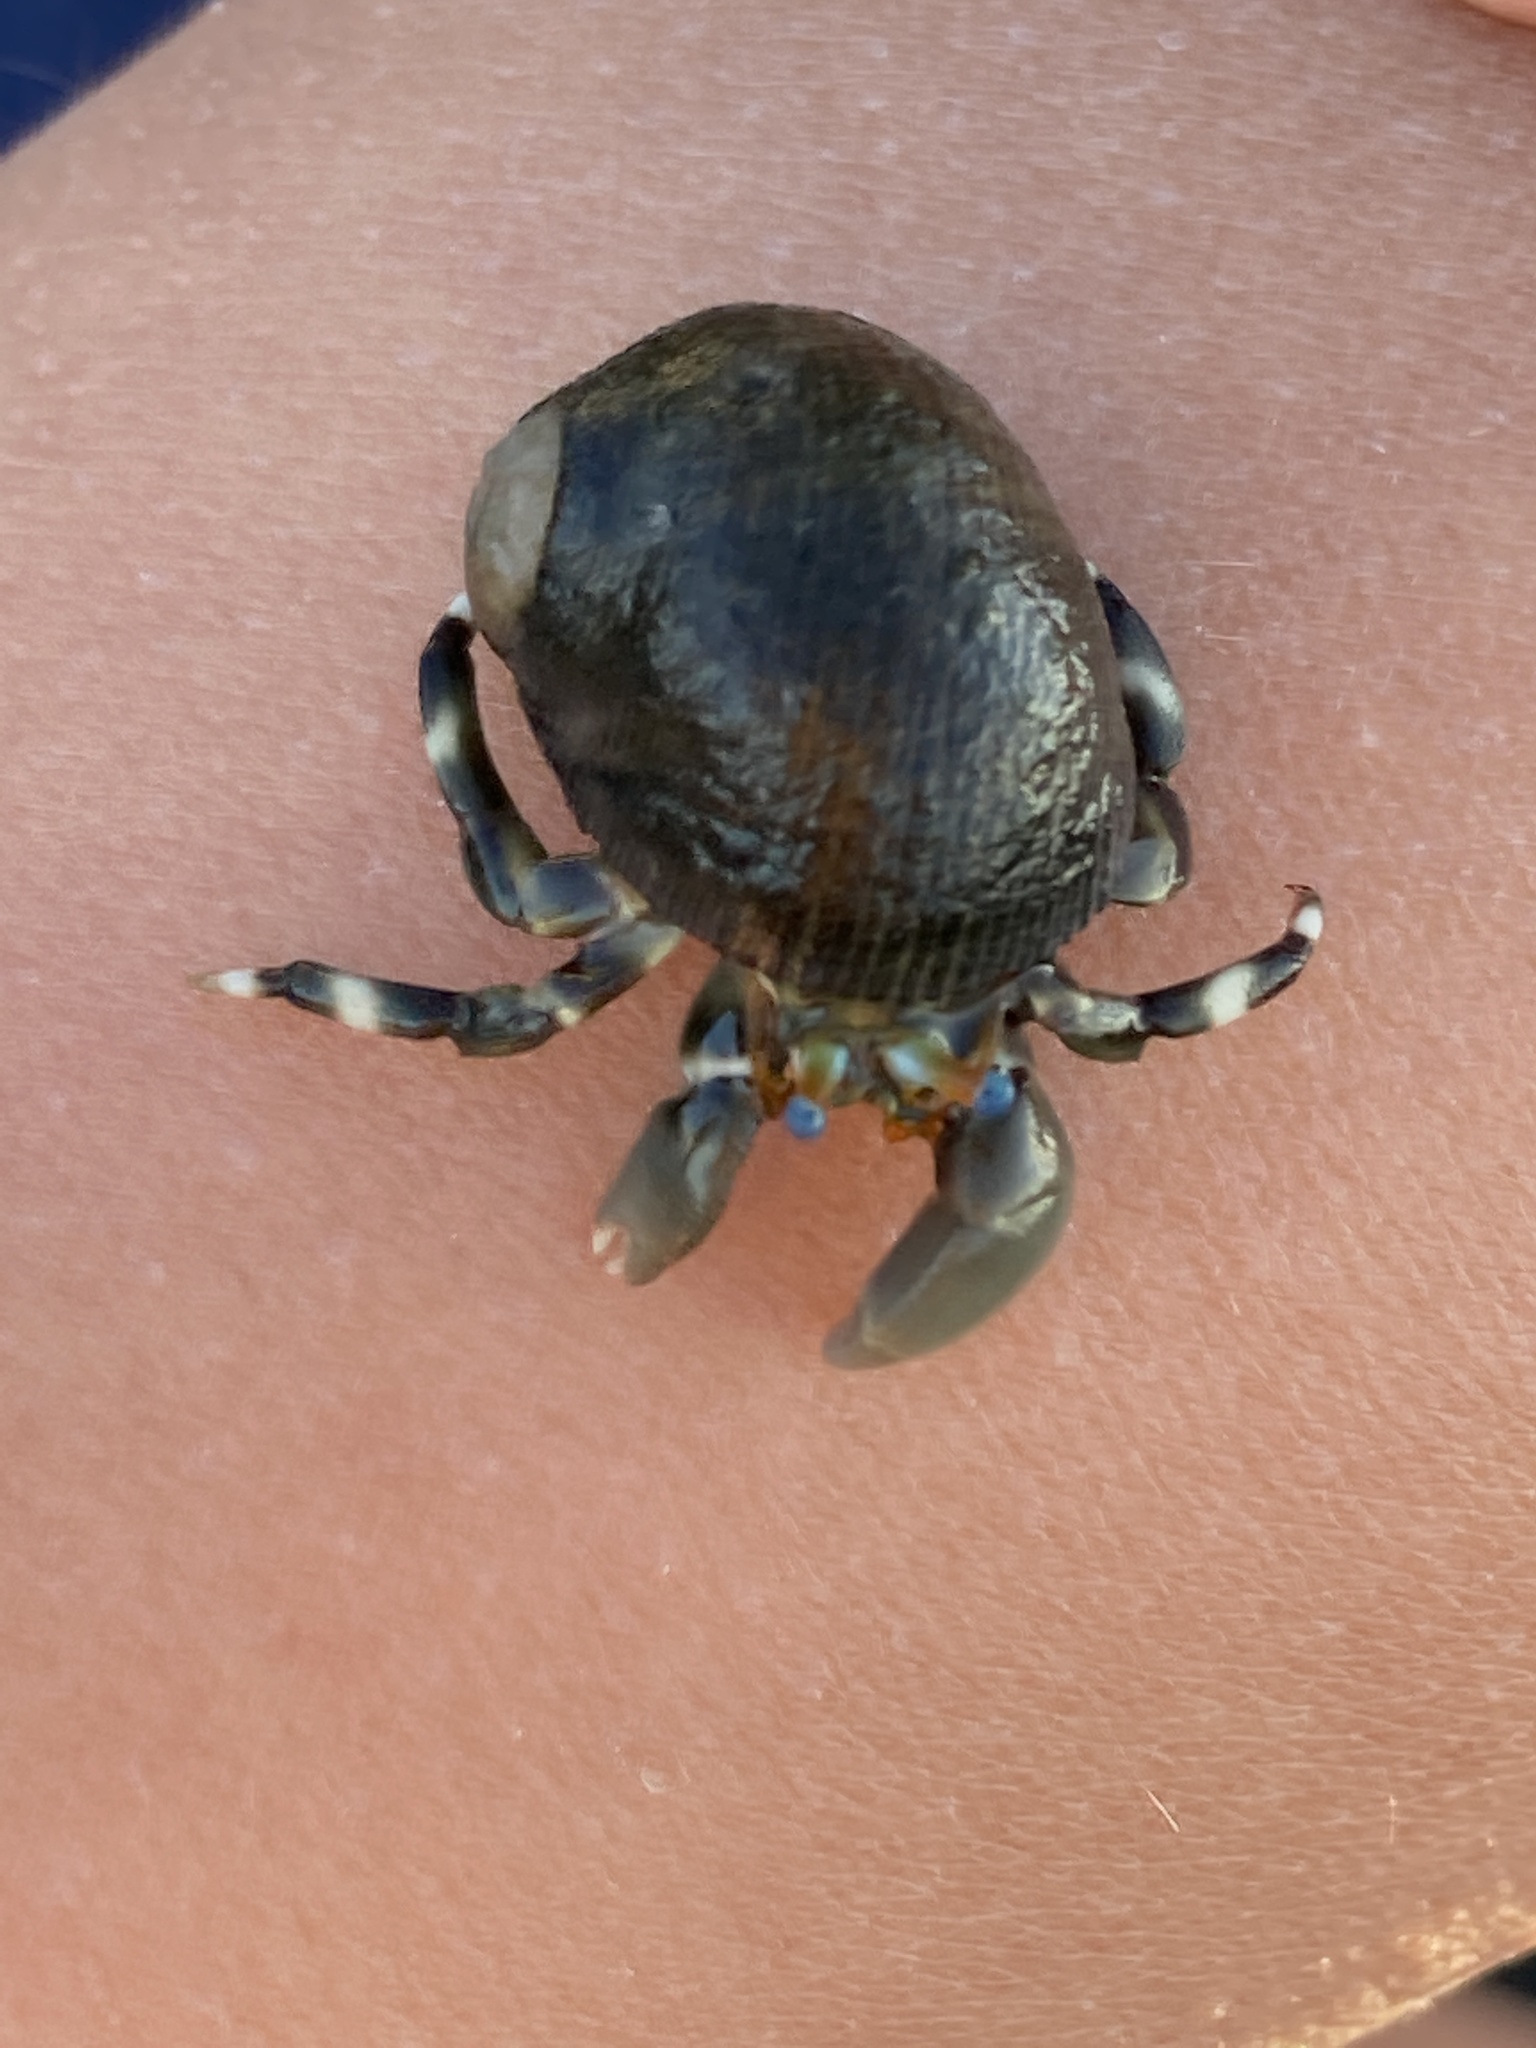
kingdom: Animalia
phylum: Arthropoda
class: Malacostraca
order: Decapoda
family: Diogenidae
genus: Calcinus
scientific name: Calcinus seurati
